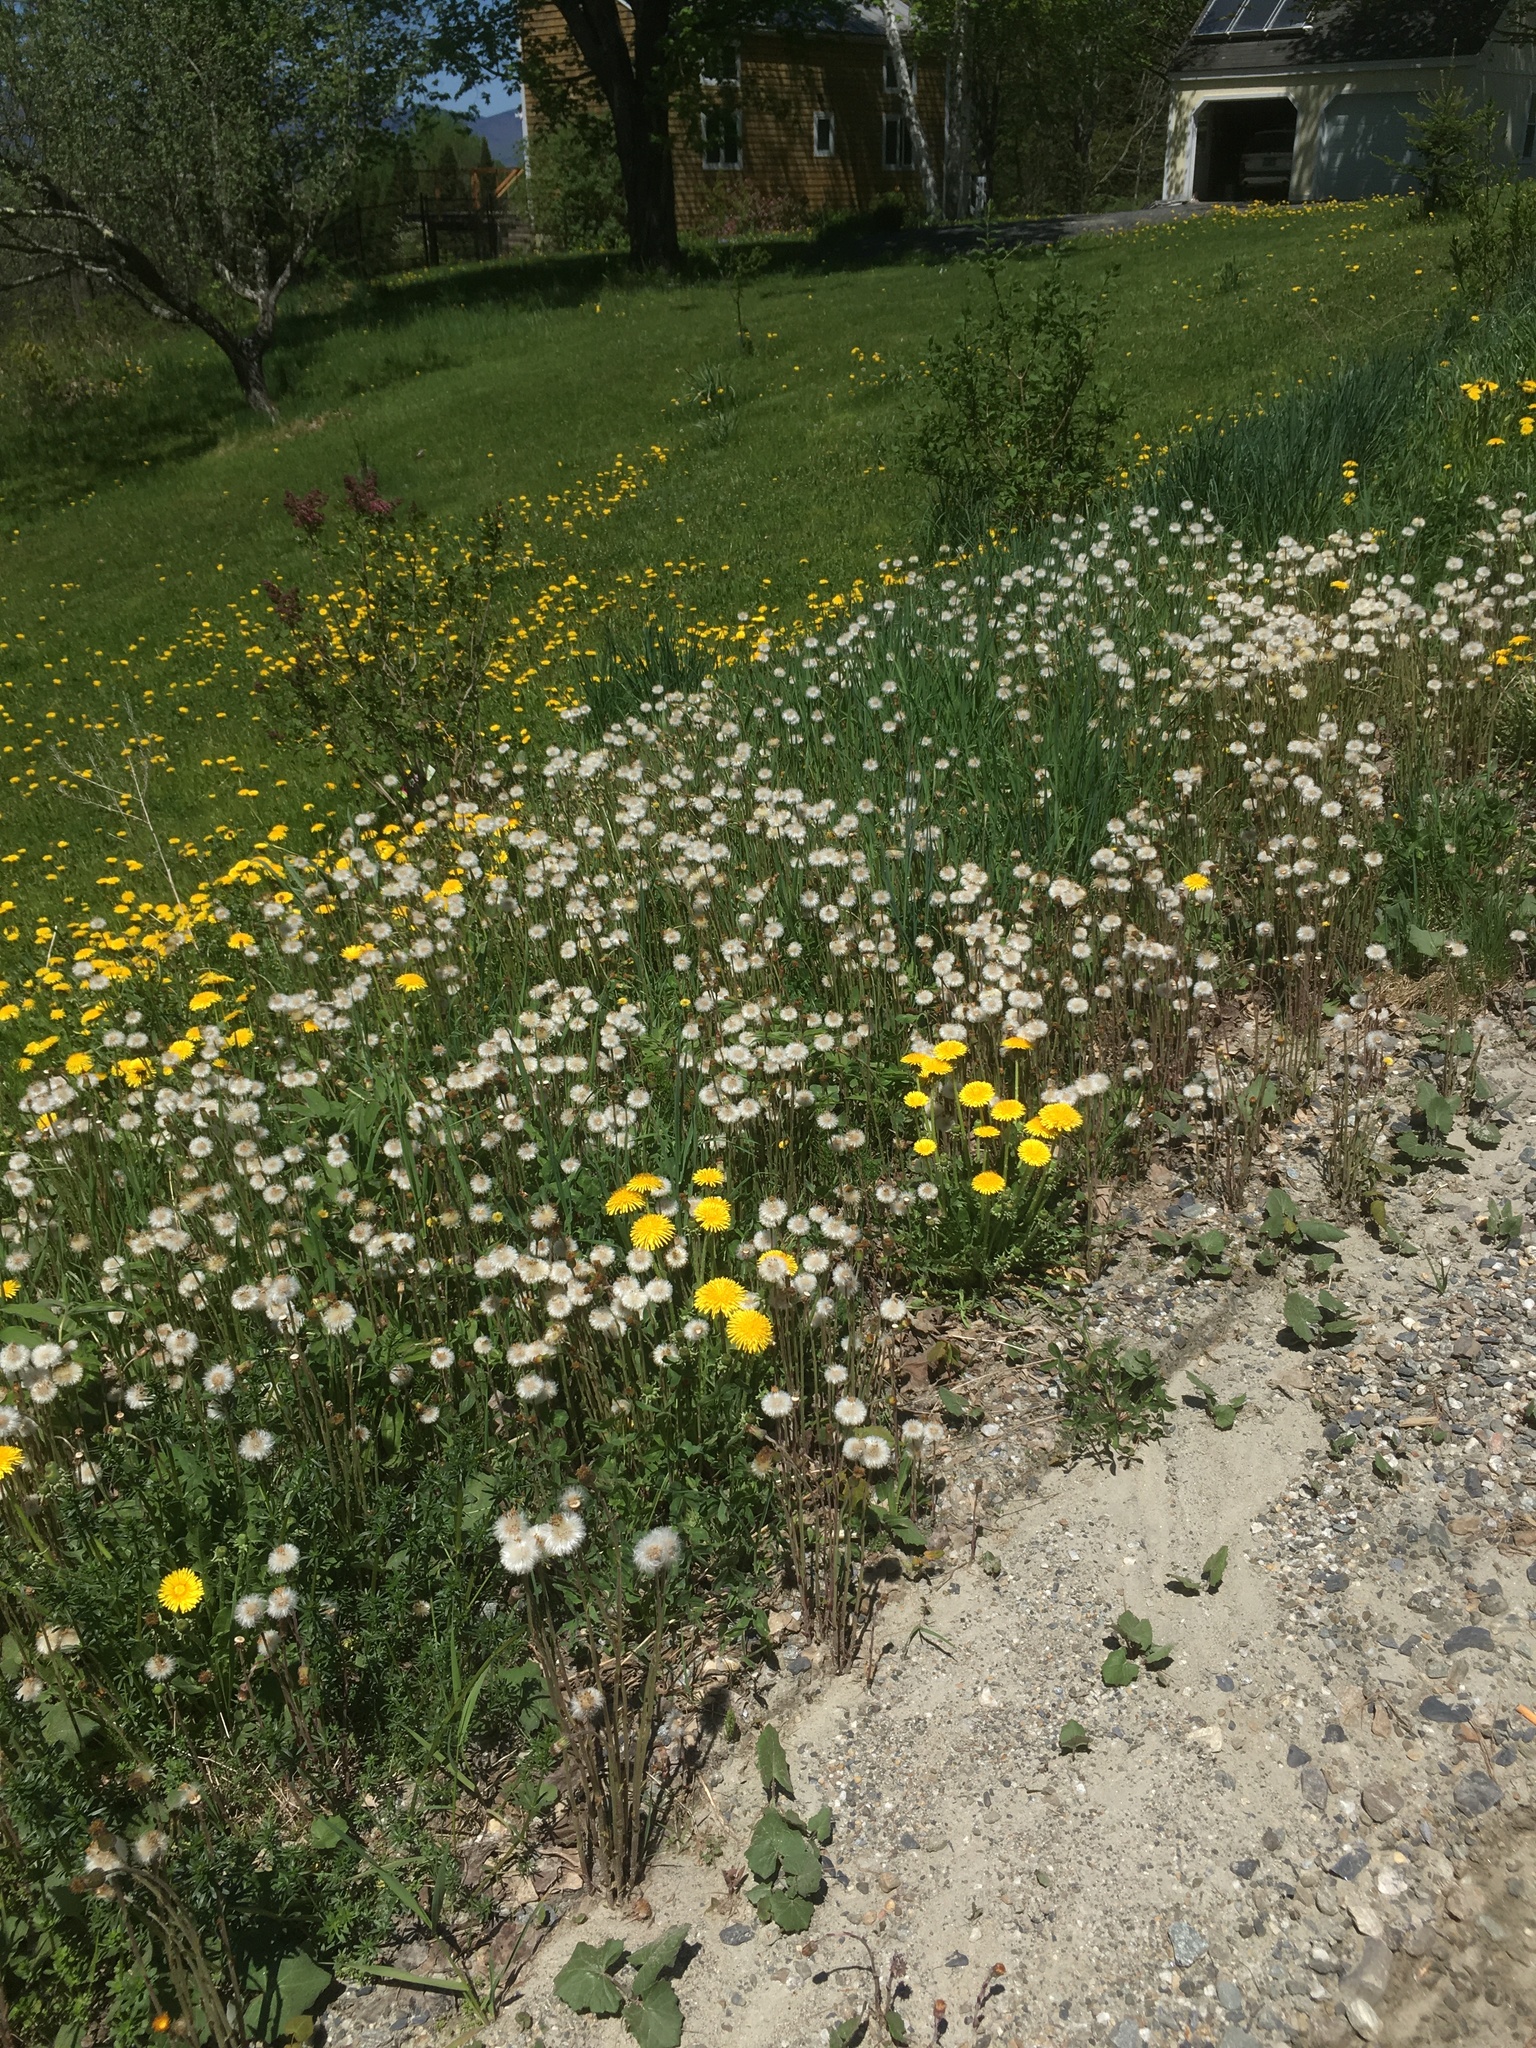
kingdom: Plantae
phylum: Tracheophyta
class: Magnoliopsida
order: Asterales
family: Asteraceae
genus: Tussilago
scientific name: Tussilago farfara
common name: Coltsfoot
